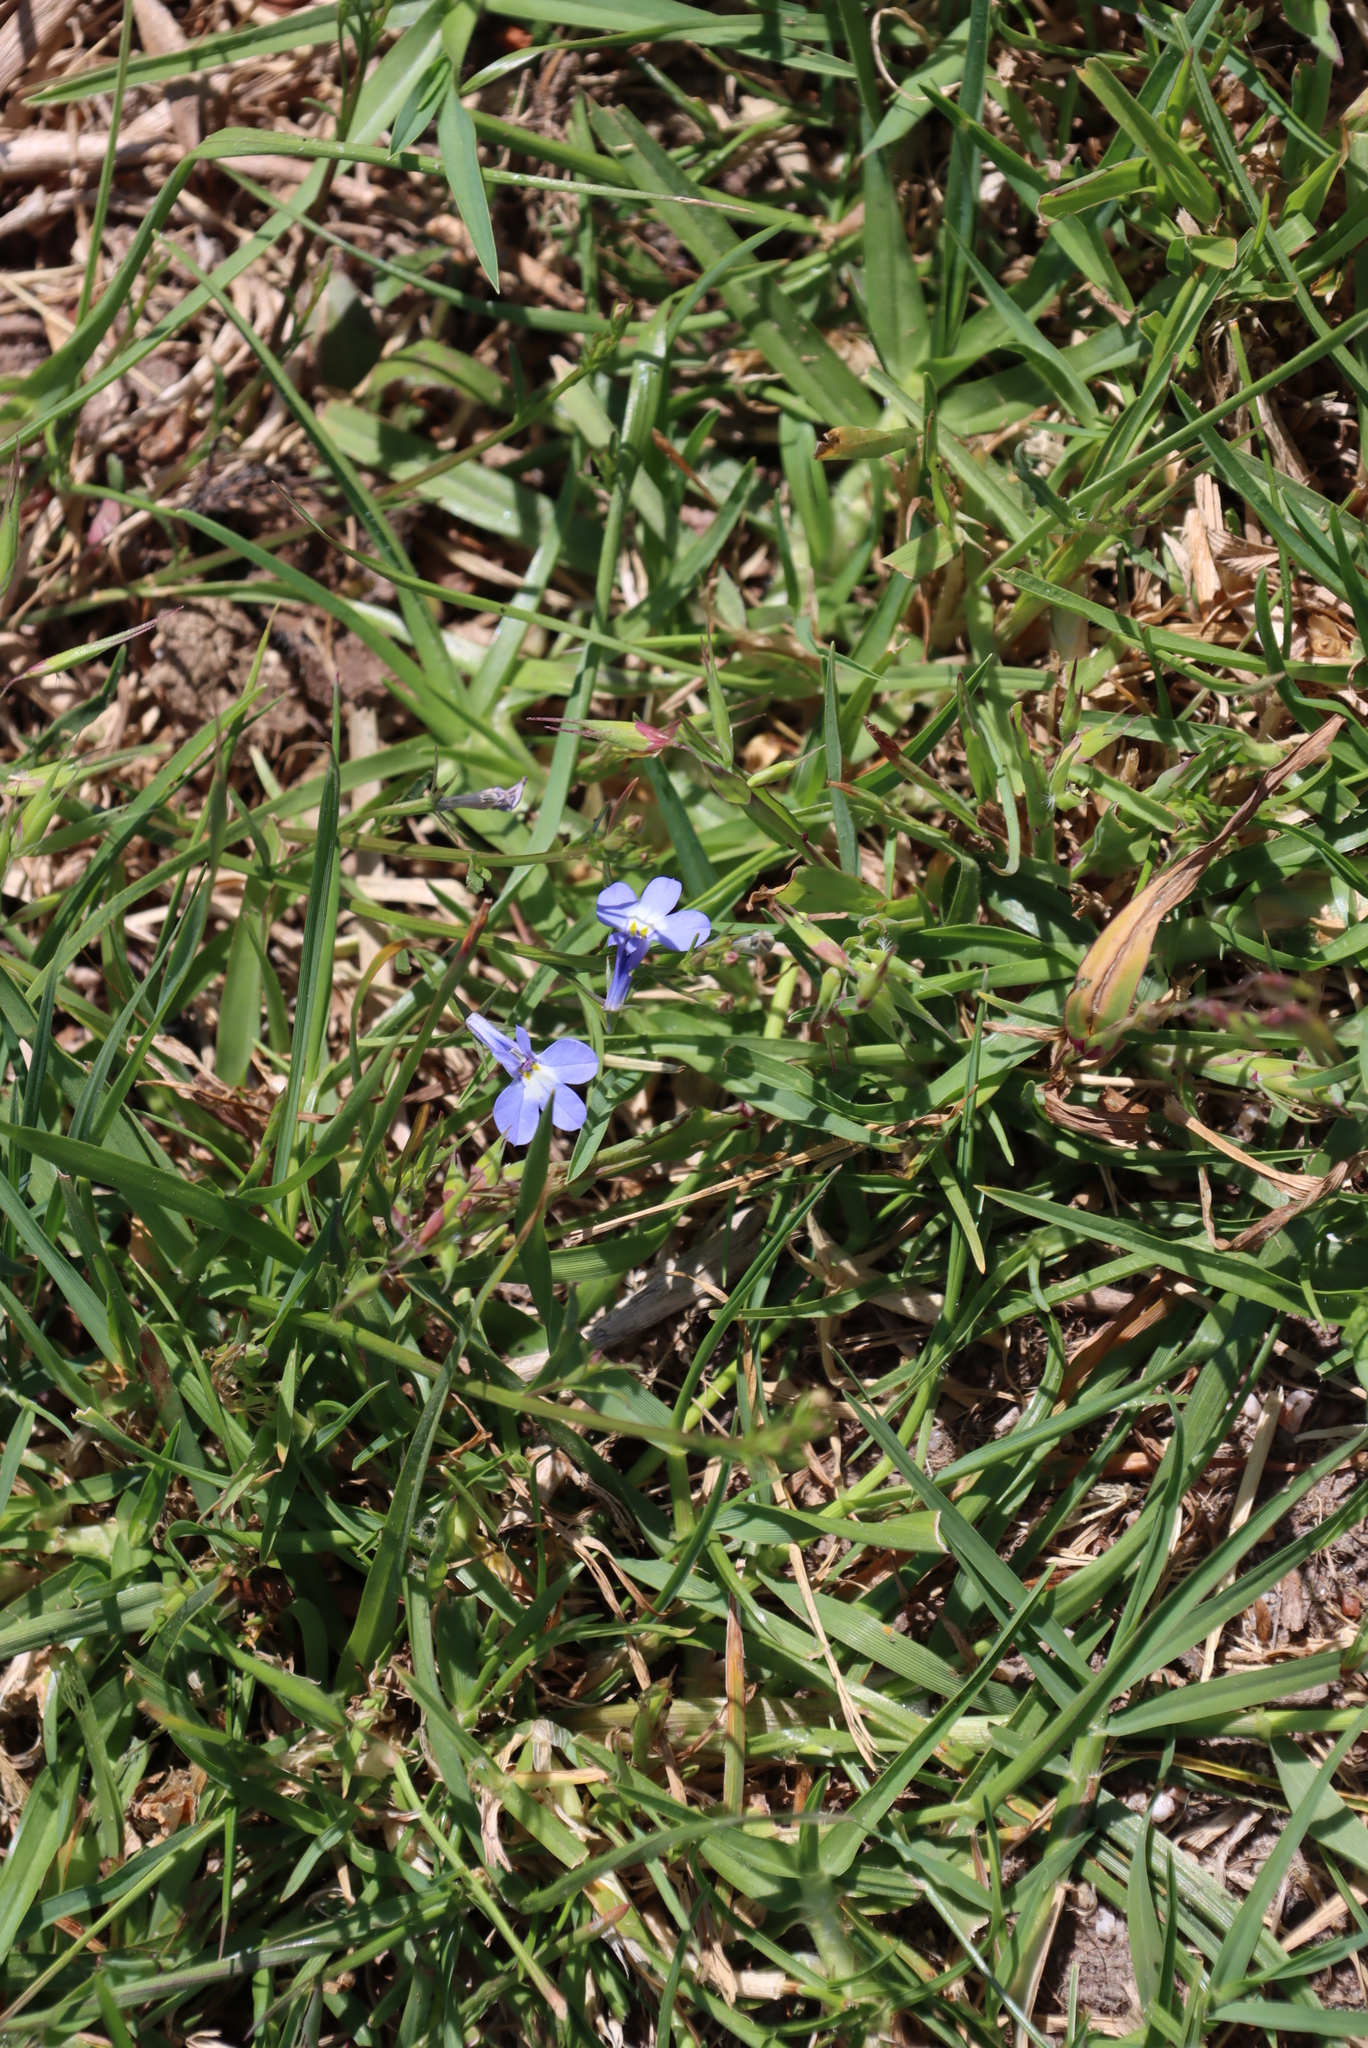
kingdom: Plantae
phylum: Tracheophyta
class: Magnoliopsida
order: Asterales
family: Campanulaceae
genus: Lobelia
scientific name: Lobelia erinus
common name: Edging lobelia
